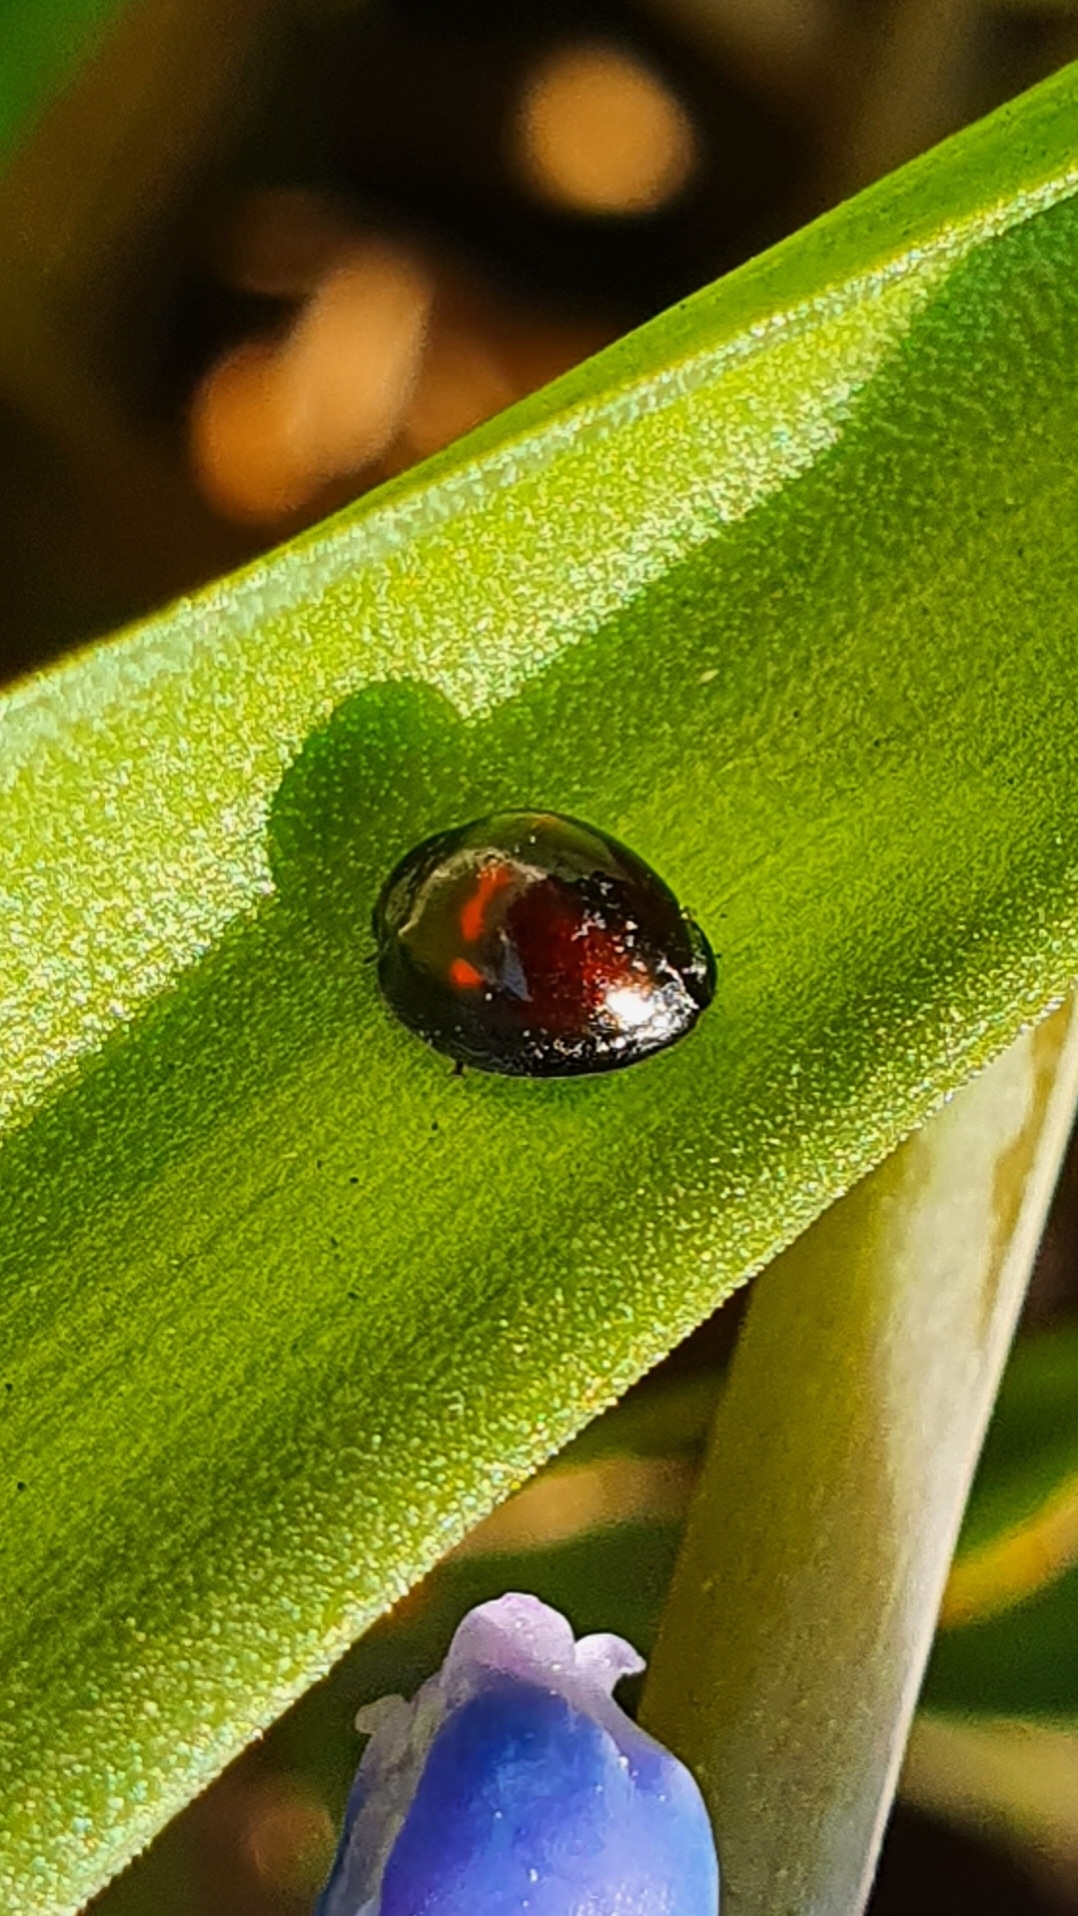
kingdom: Animalia
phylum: Arthropoda
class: Insecta
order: Coleoptera
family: Coccinellidae
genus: Chilocorus
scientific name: Chilocorus bipustulatus
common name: Heather ladybird
